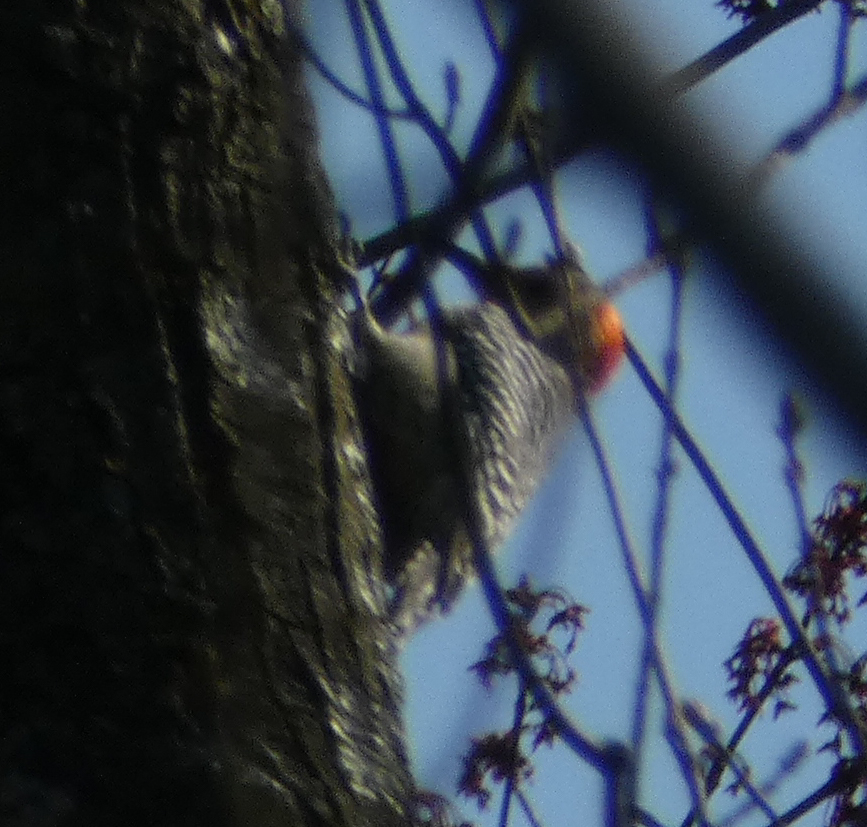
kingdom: Animalia
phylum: Chordata
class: Aves
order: Piciformes
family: Picidae
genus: Melanerpes
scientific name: Melanerpes carolinus
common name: Red-bellied woodpecker
